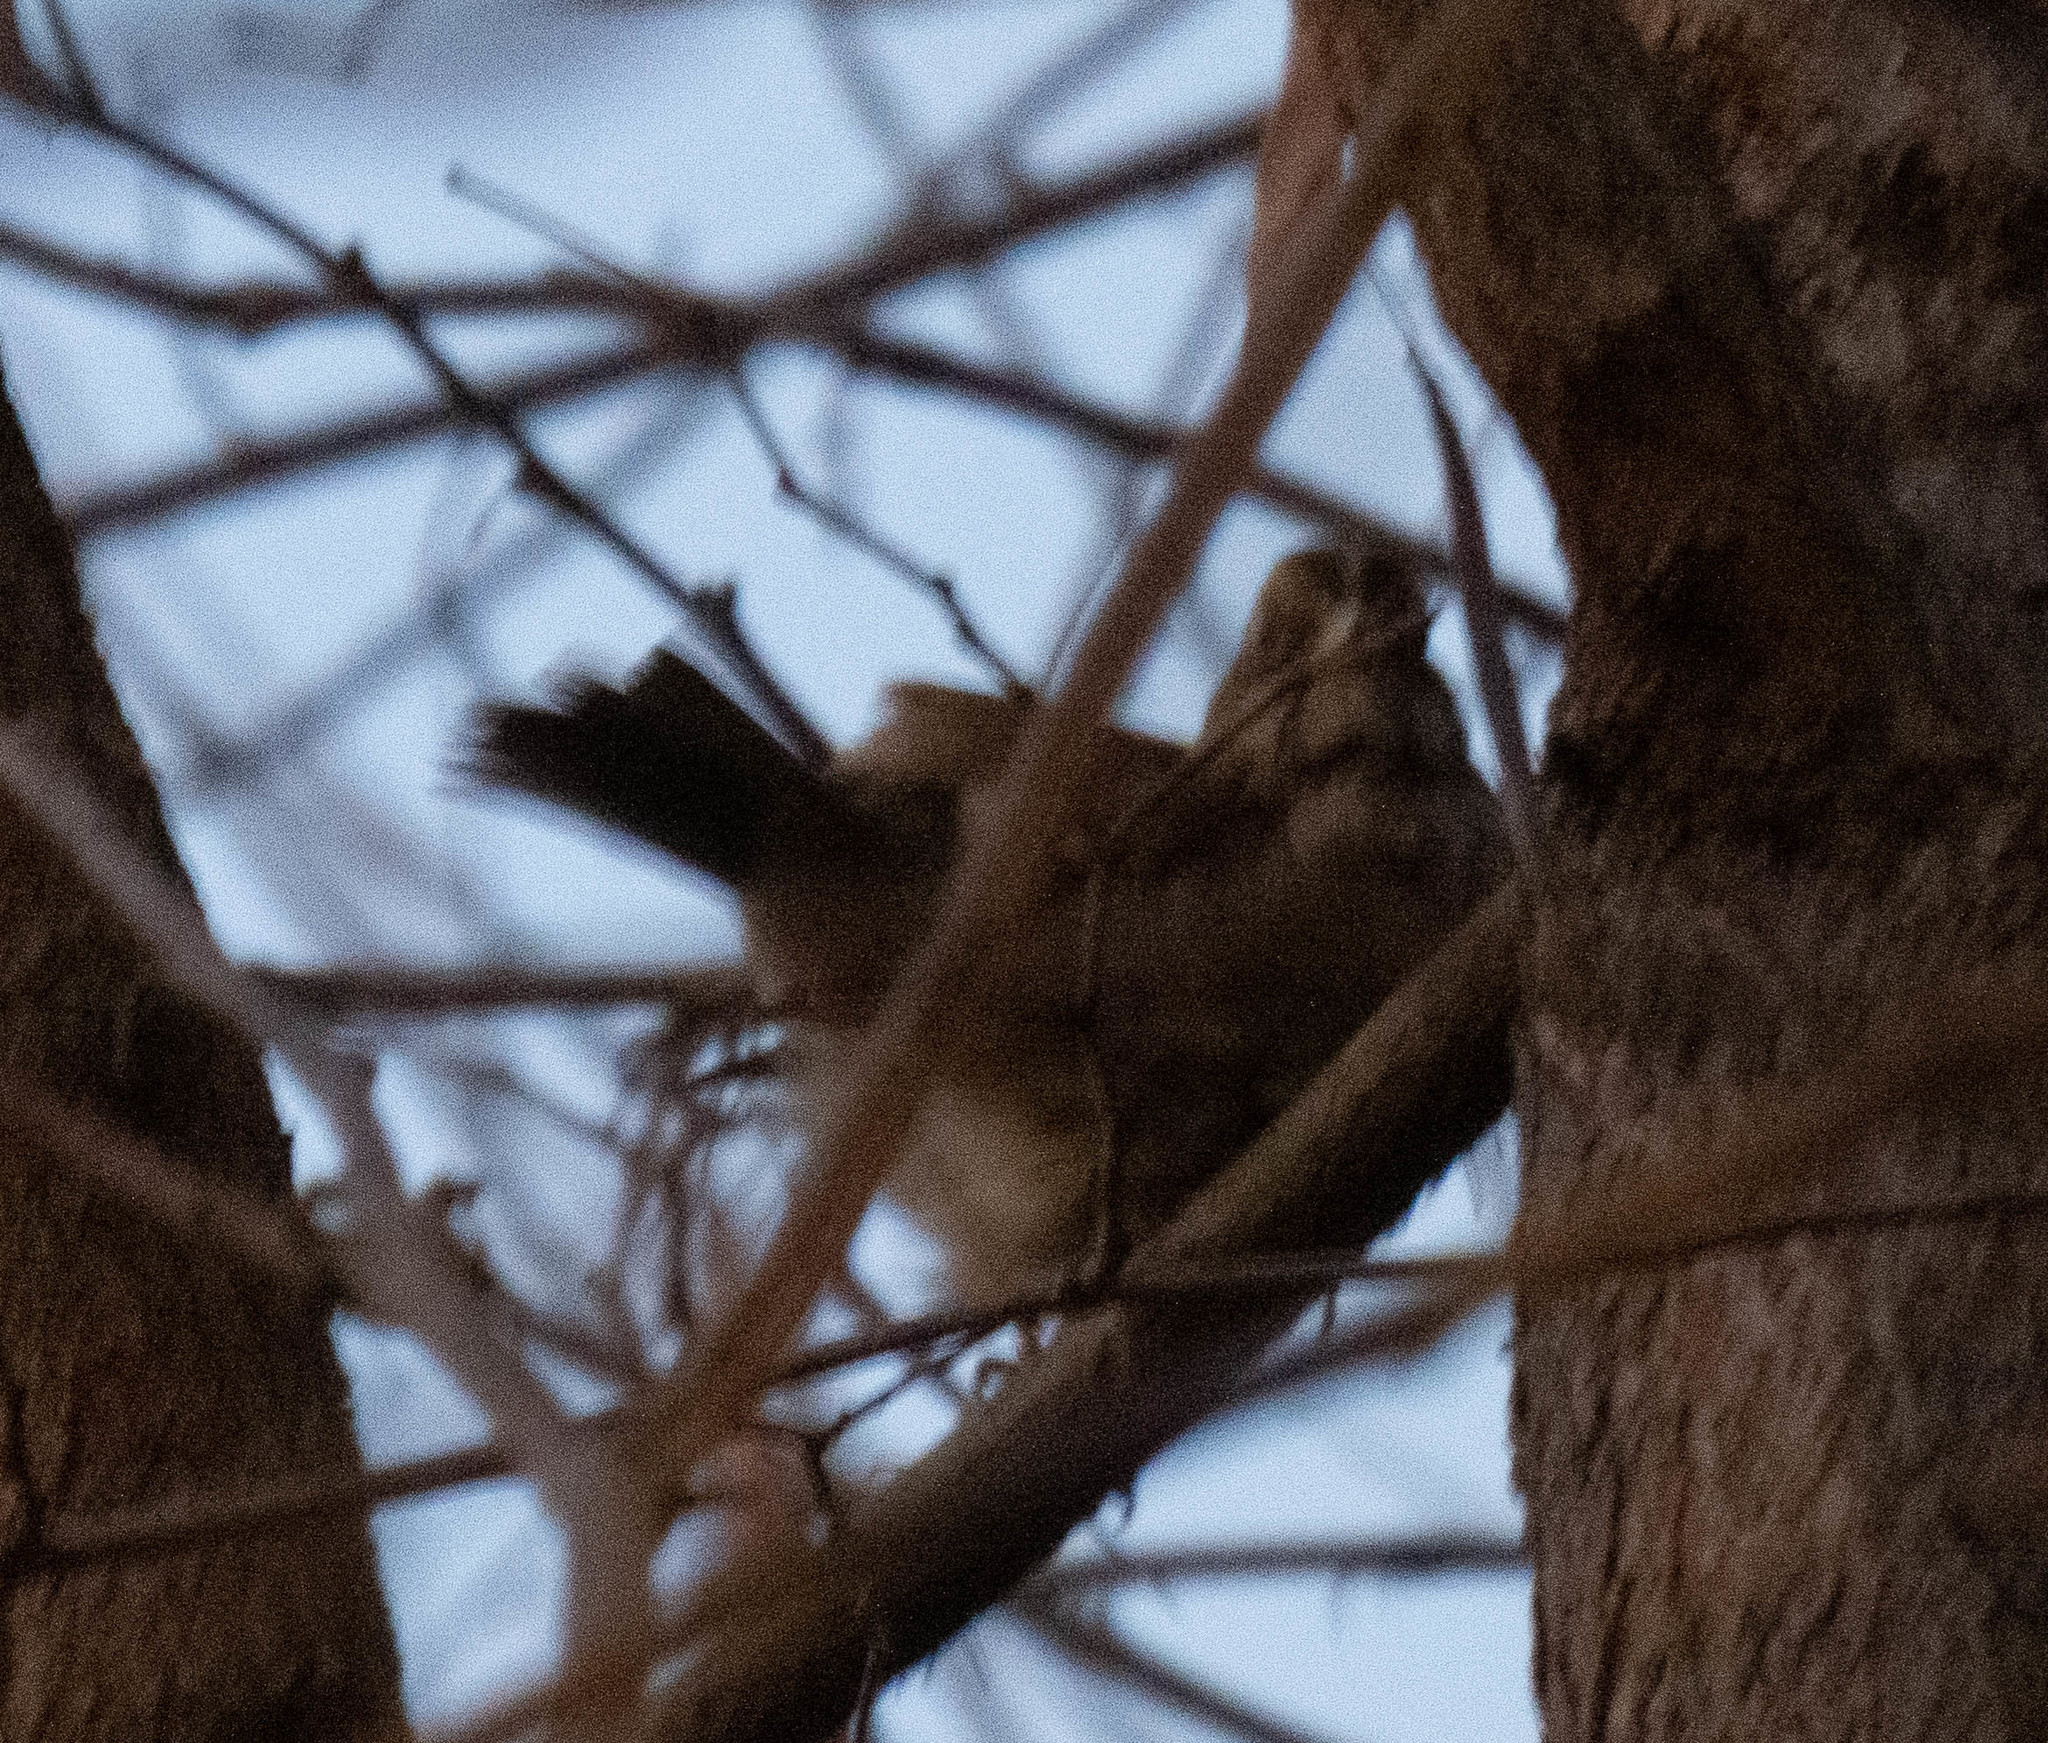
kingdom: Animalia
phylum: Chordata
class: Aves
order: Passeriformes
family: Passerellidae
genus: Zonotrichia
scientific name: Zonotrichia albicollis
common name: White-throated sparrow
